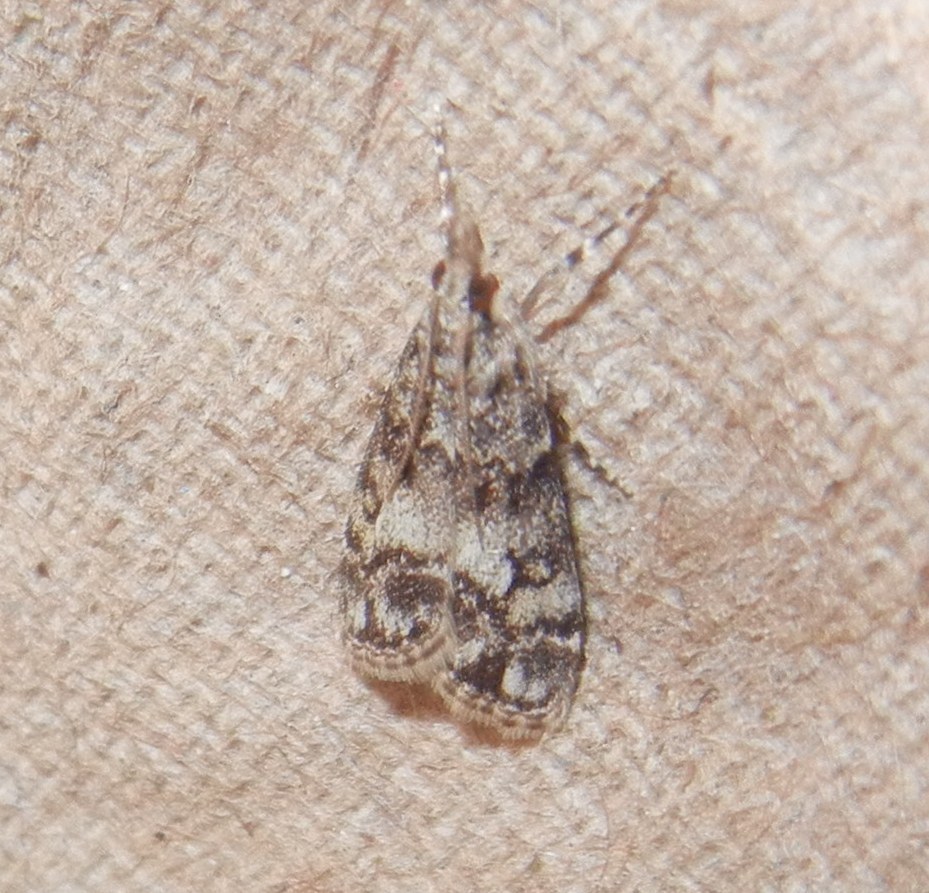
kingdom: Animalia
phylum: Arthropoda
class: Insecta
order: Lepidoptera
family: Crambidae
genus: Eudonia
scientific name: Eudonia lacustrata
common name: Little grey
